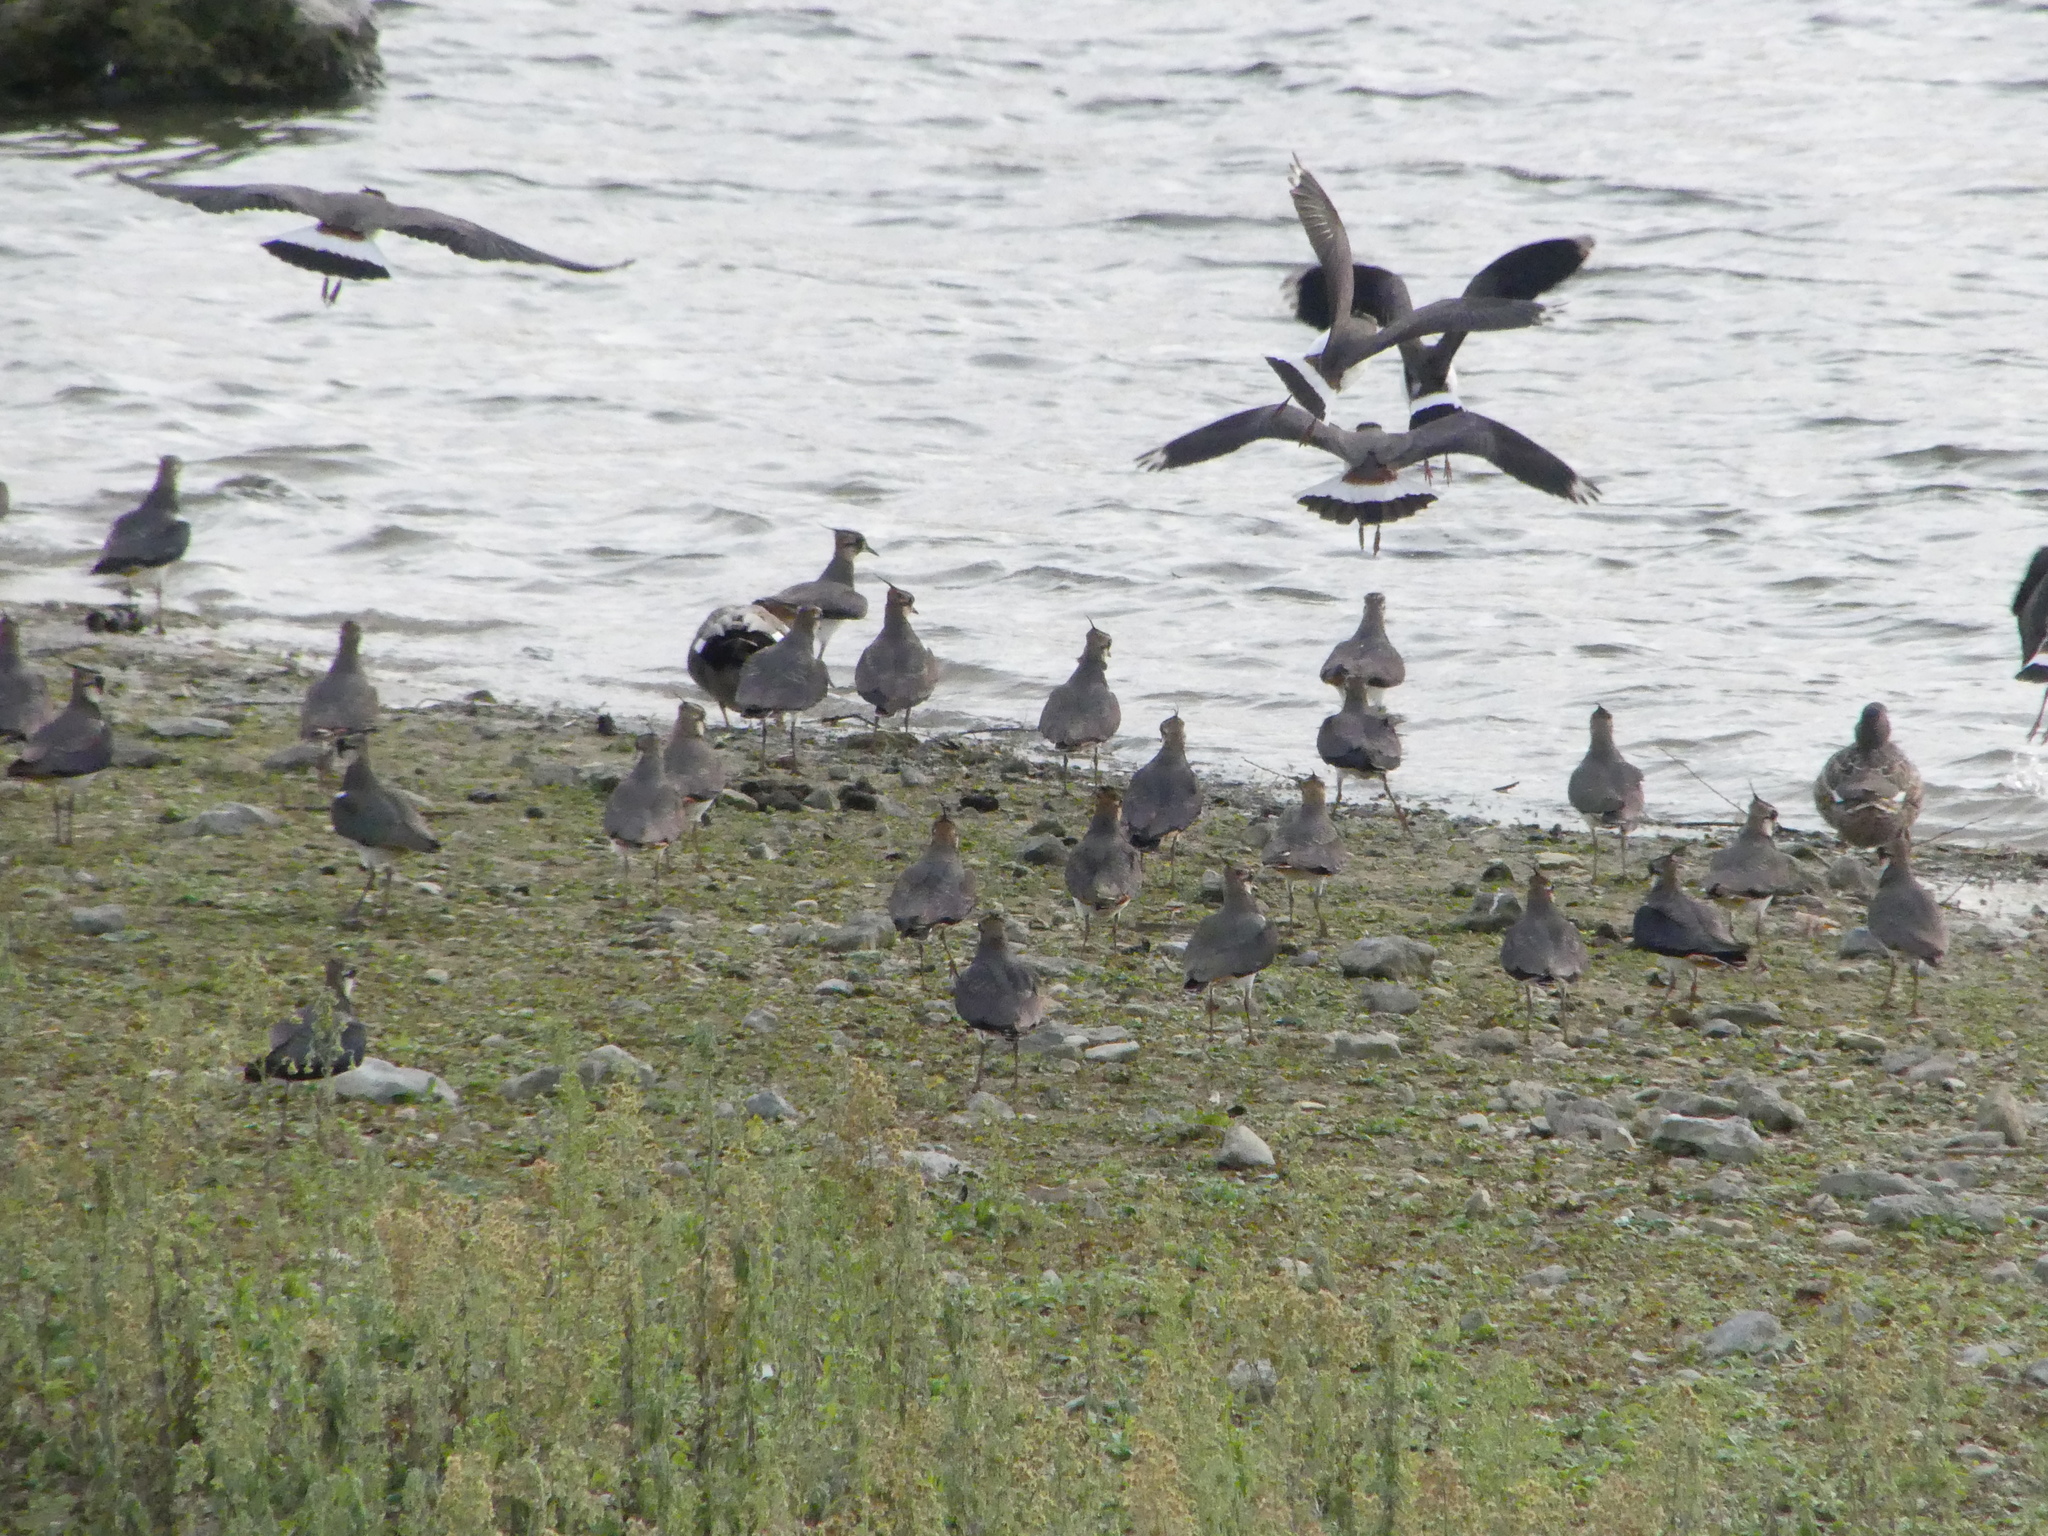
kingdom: Animalia
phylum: Chordata
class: Aves
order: Charadriiformes
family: Charadriidae
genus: Vanellus
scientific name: Vanellus vanellus
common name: Northern lapwing
